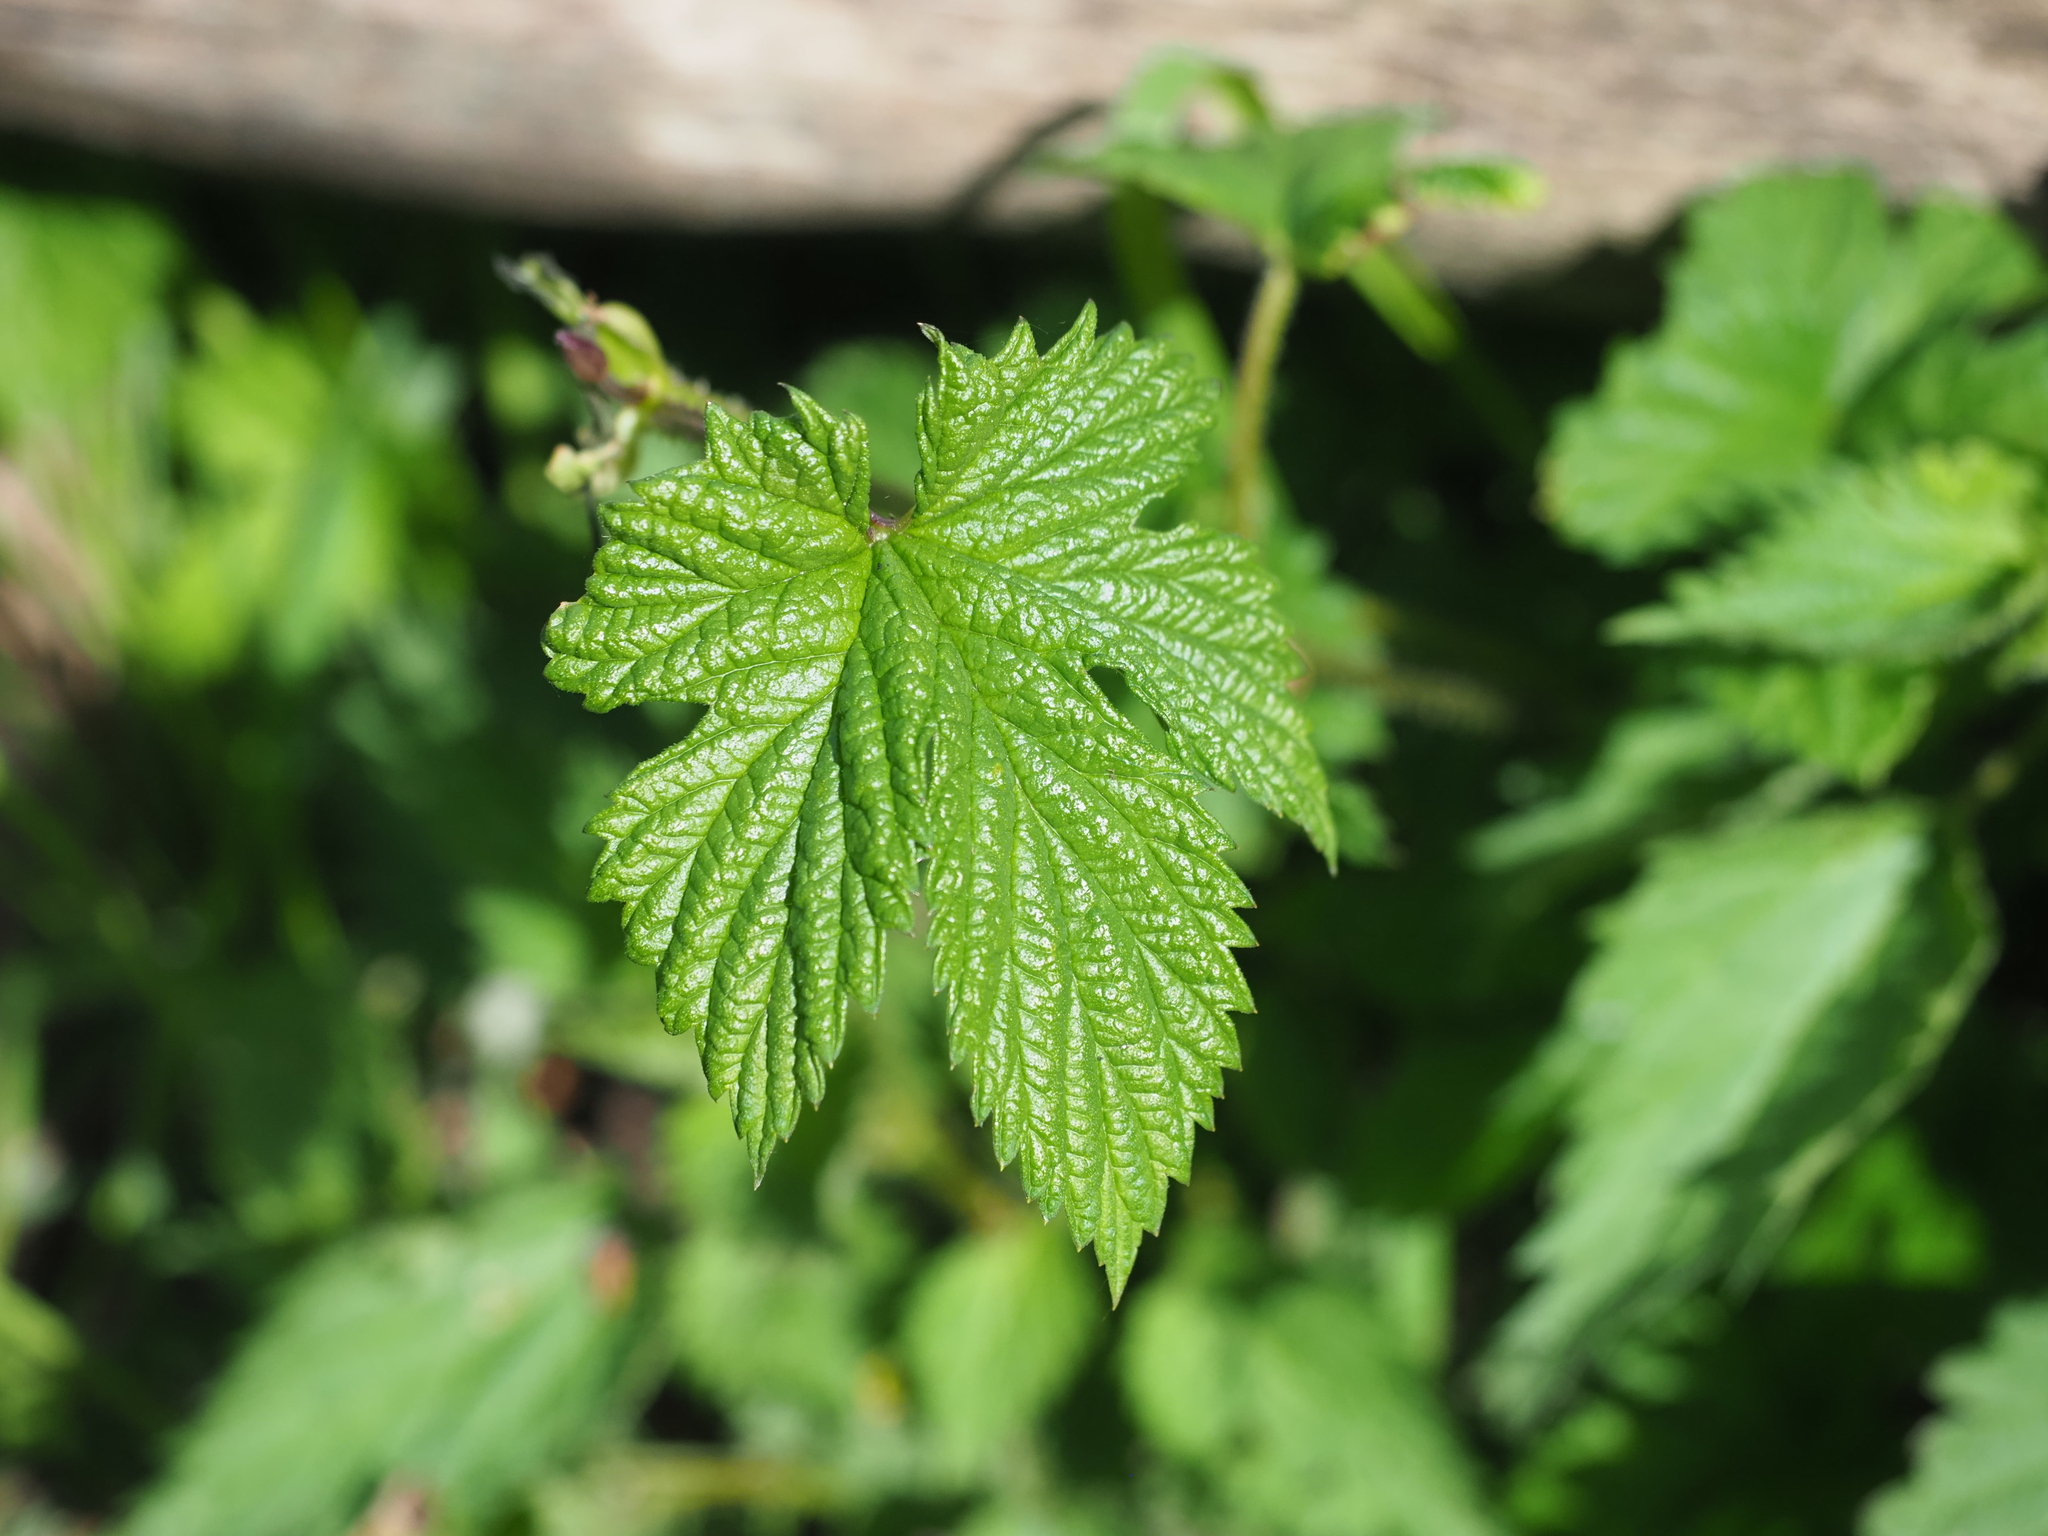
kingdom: Plantae
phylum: Tracheophyta
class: Magnoliopsida
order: Rosales
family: Cannabaceae
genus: Humulus
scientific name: Humulus lupulus
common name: Hop
